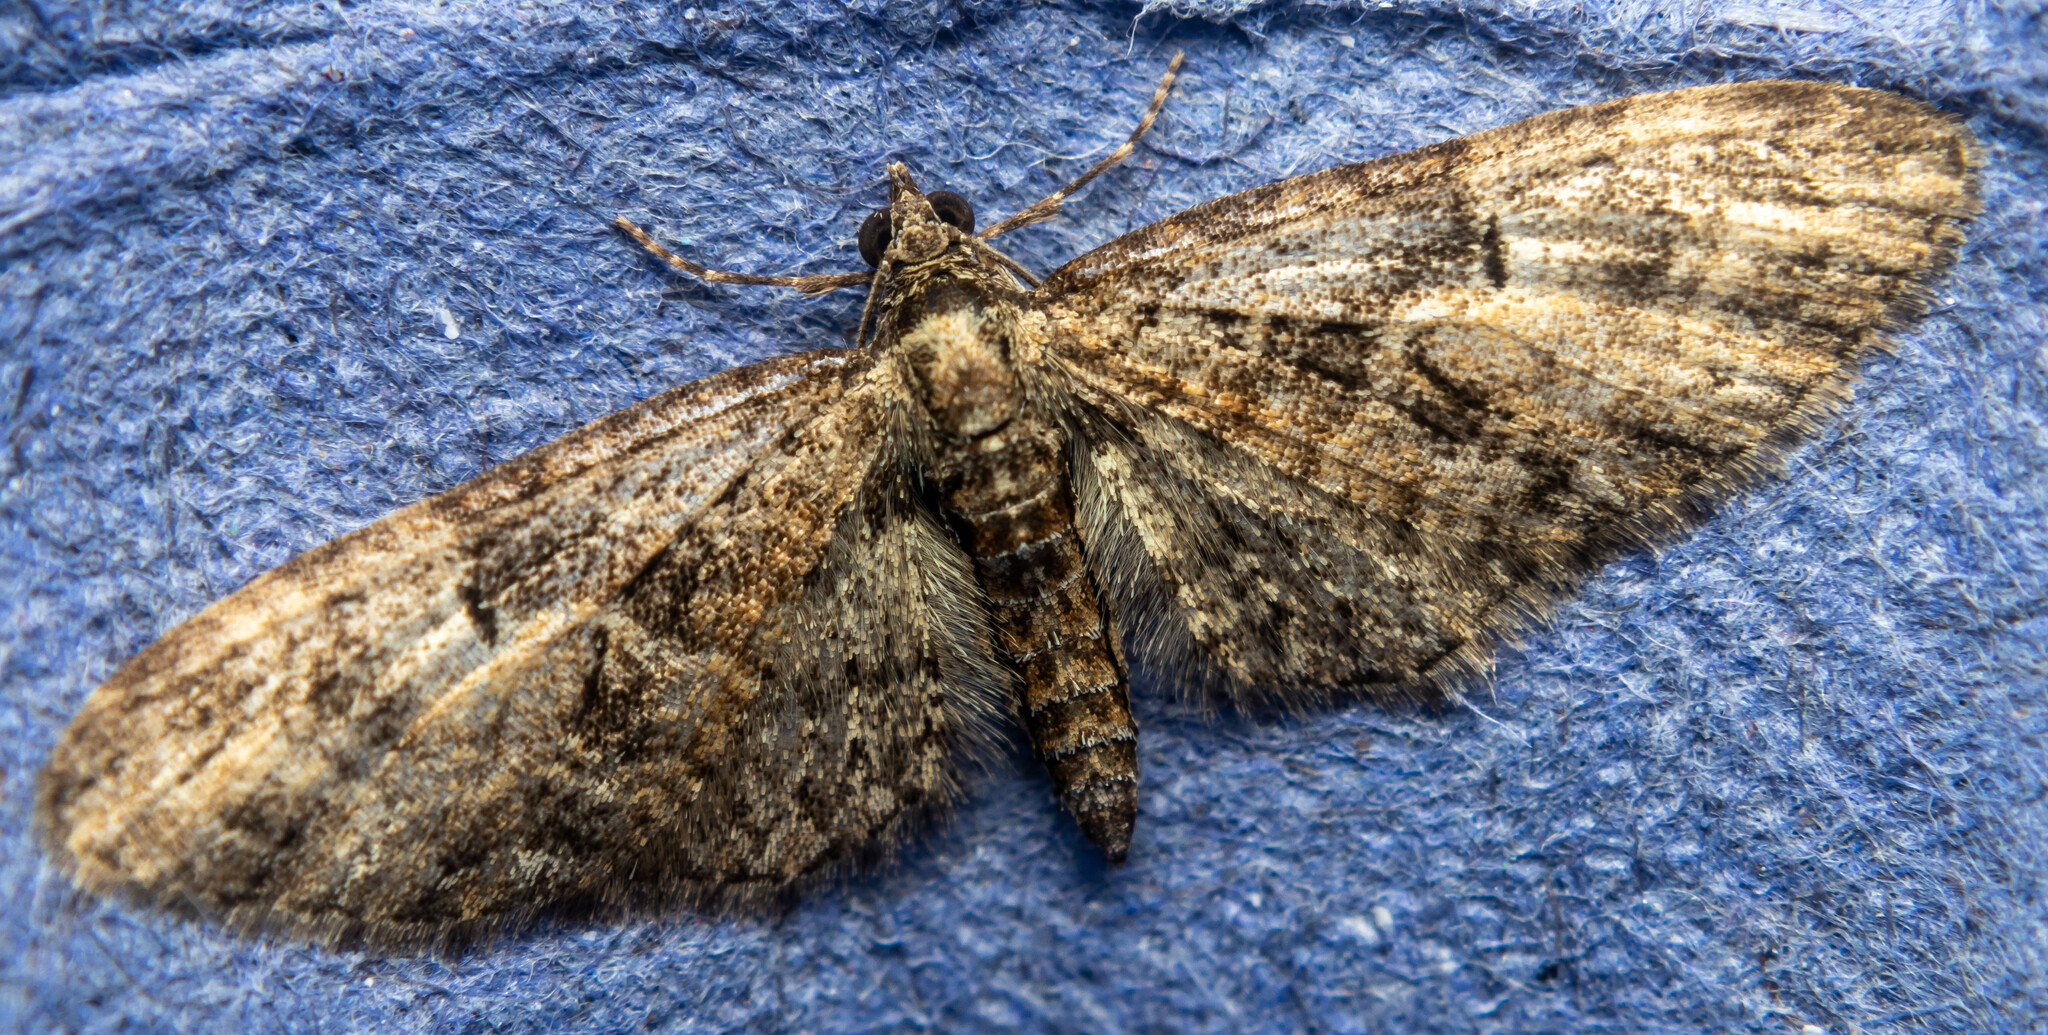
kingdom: Animalia
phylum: Arthropoda
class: Insecta
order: Lepidoptera
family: Geometridae
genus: Eupithecia
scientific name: Eupithecia abbreviata
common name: Brindled pug
